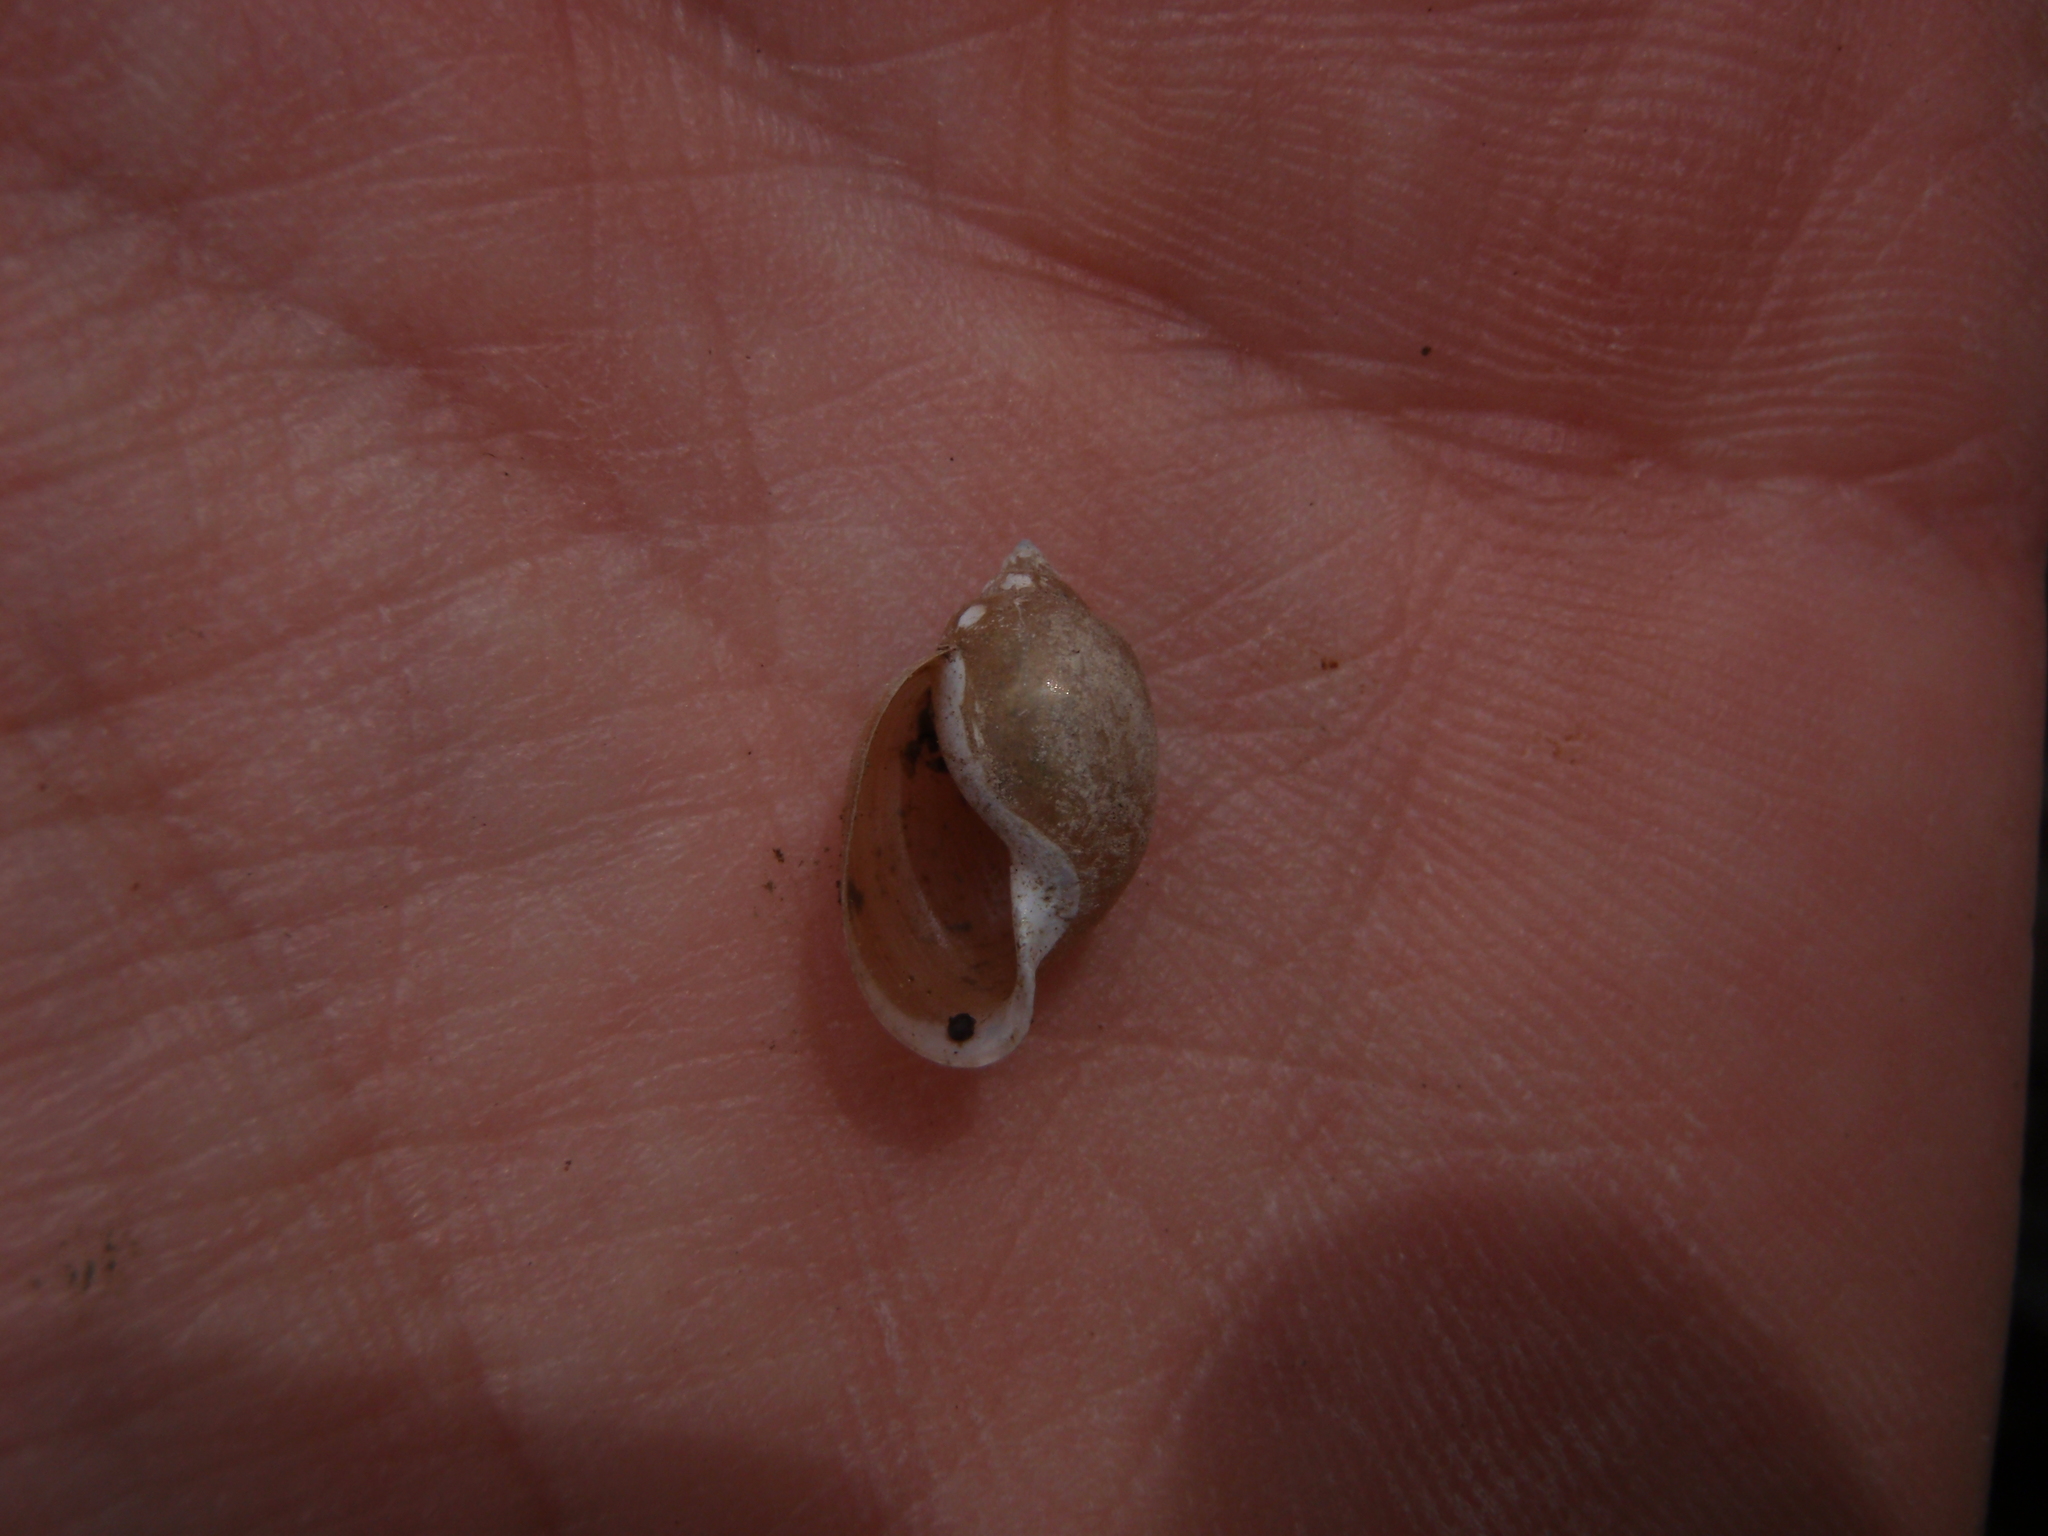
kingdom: Animalia
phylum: Mollusca
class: Gastropoda
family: Physidae
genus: Physella
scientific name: Physella acuta
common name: European physa
